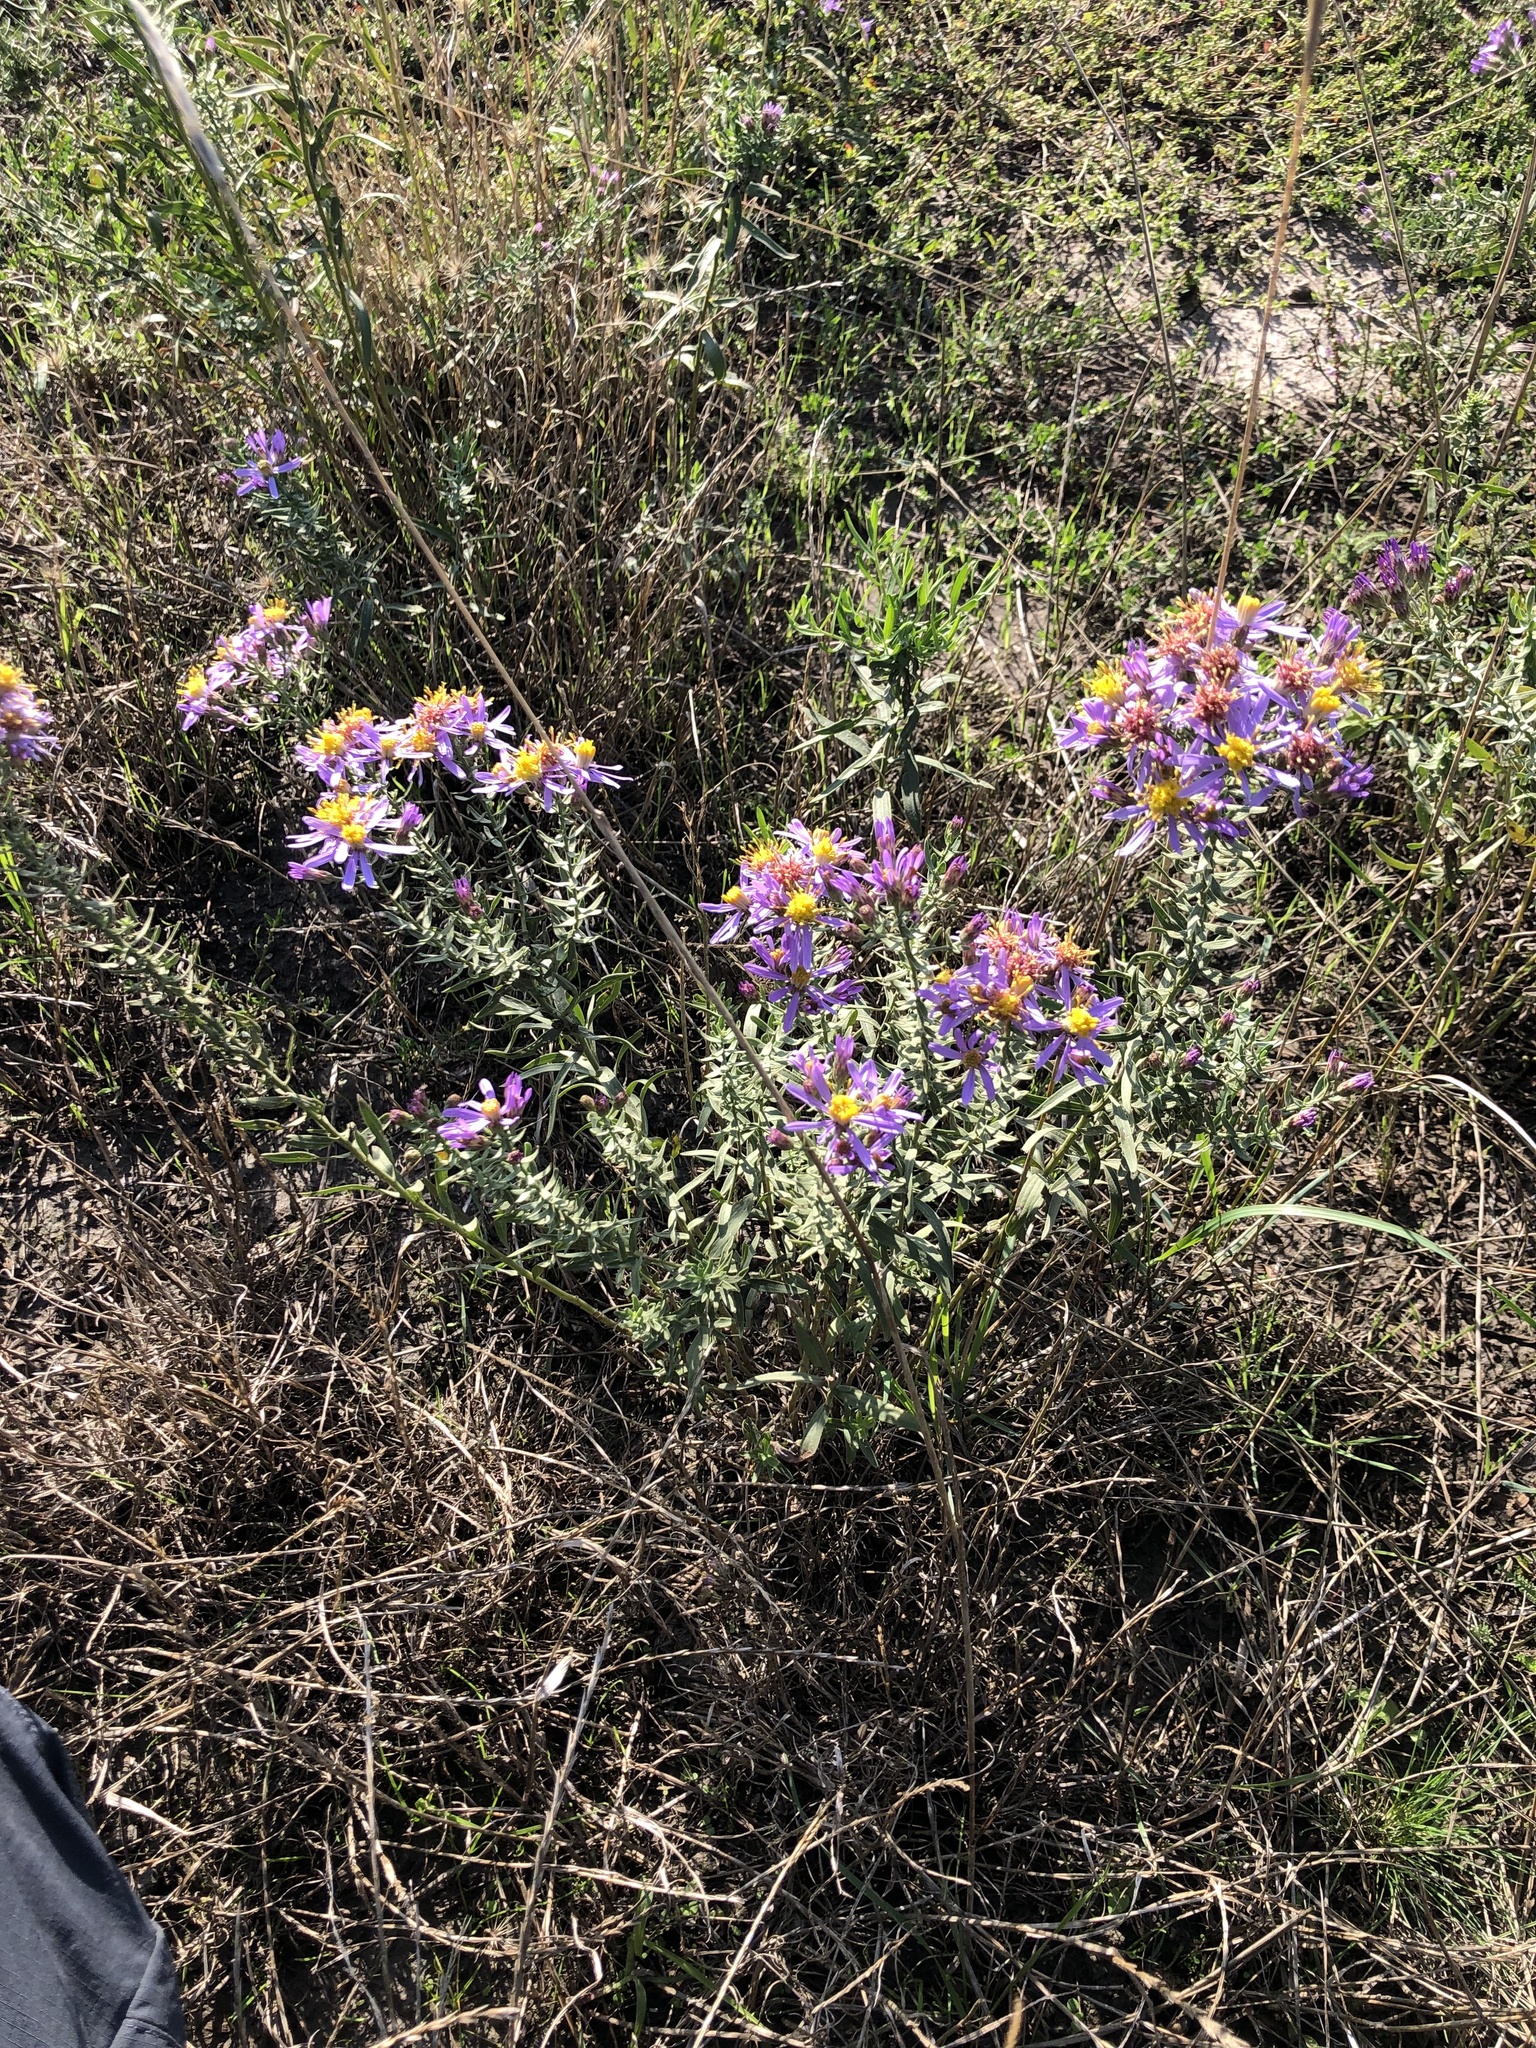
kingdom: Plantae
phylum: Tracheophyta
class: Magnoliopsida
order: Asterales
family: Asteraceae
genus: Galatella
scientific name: Galatella sedifolia
